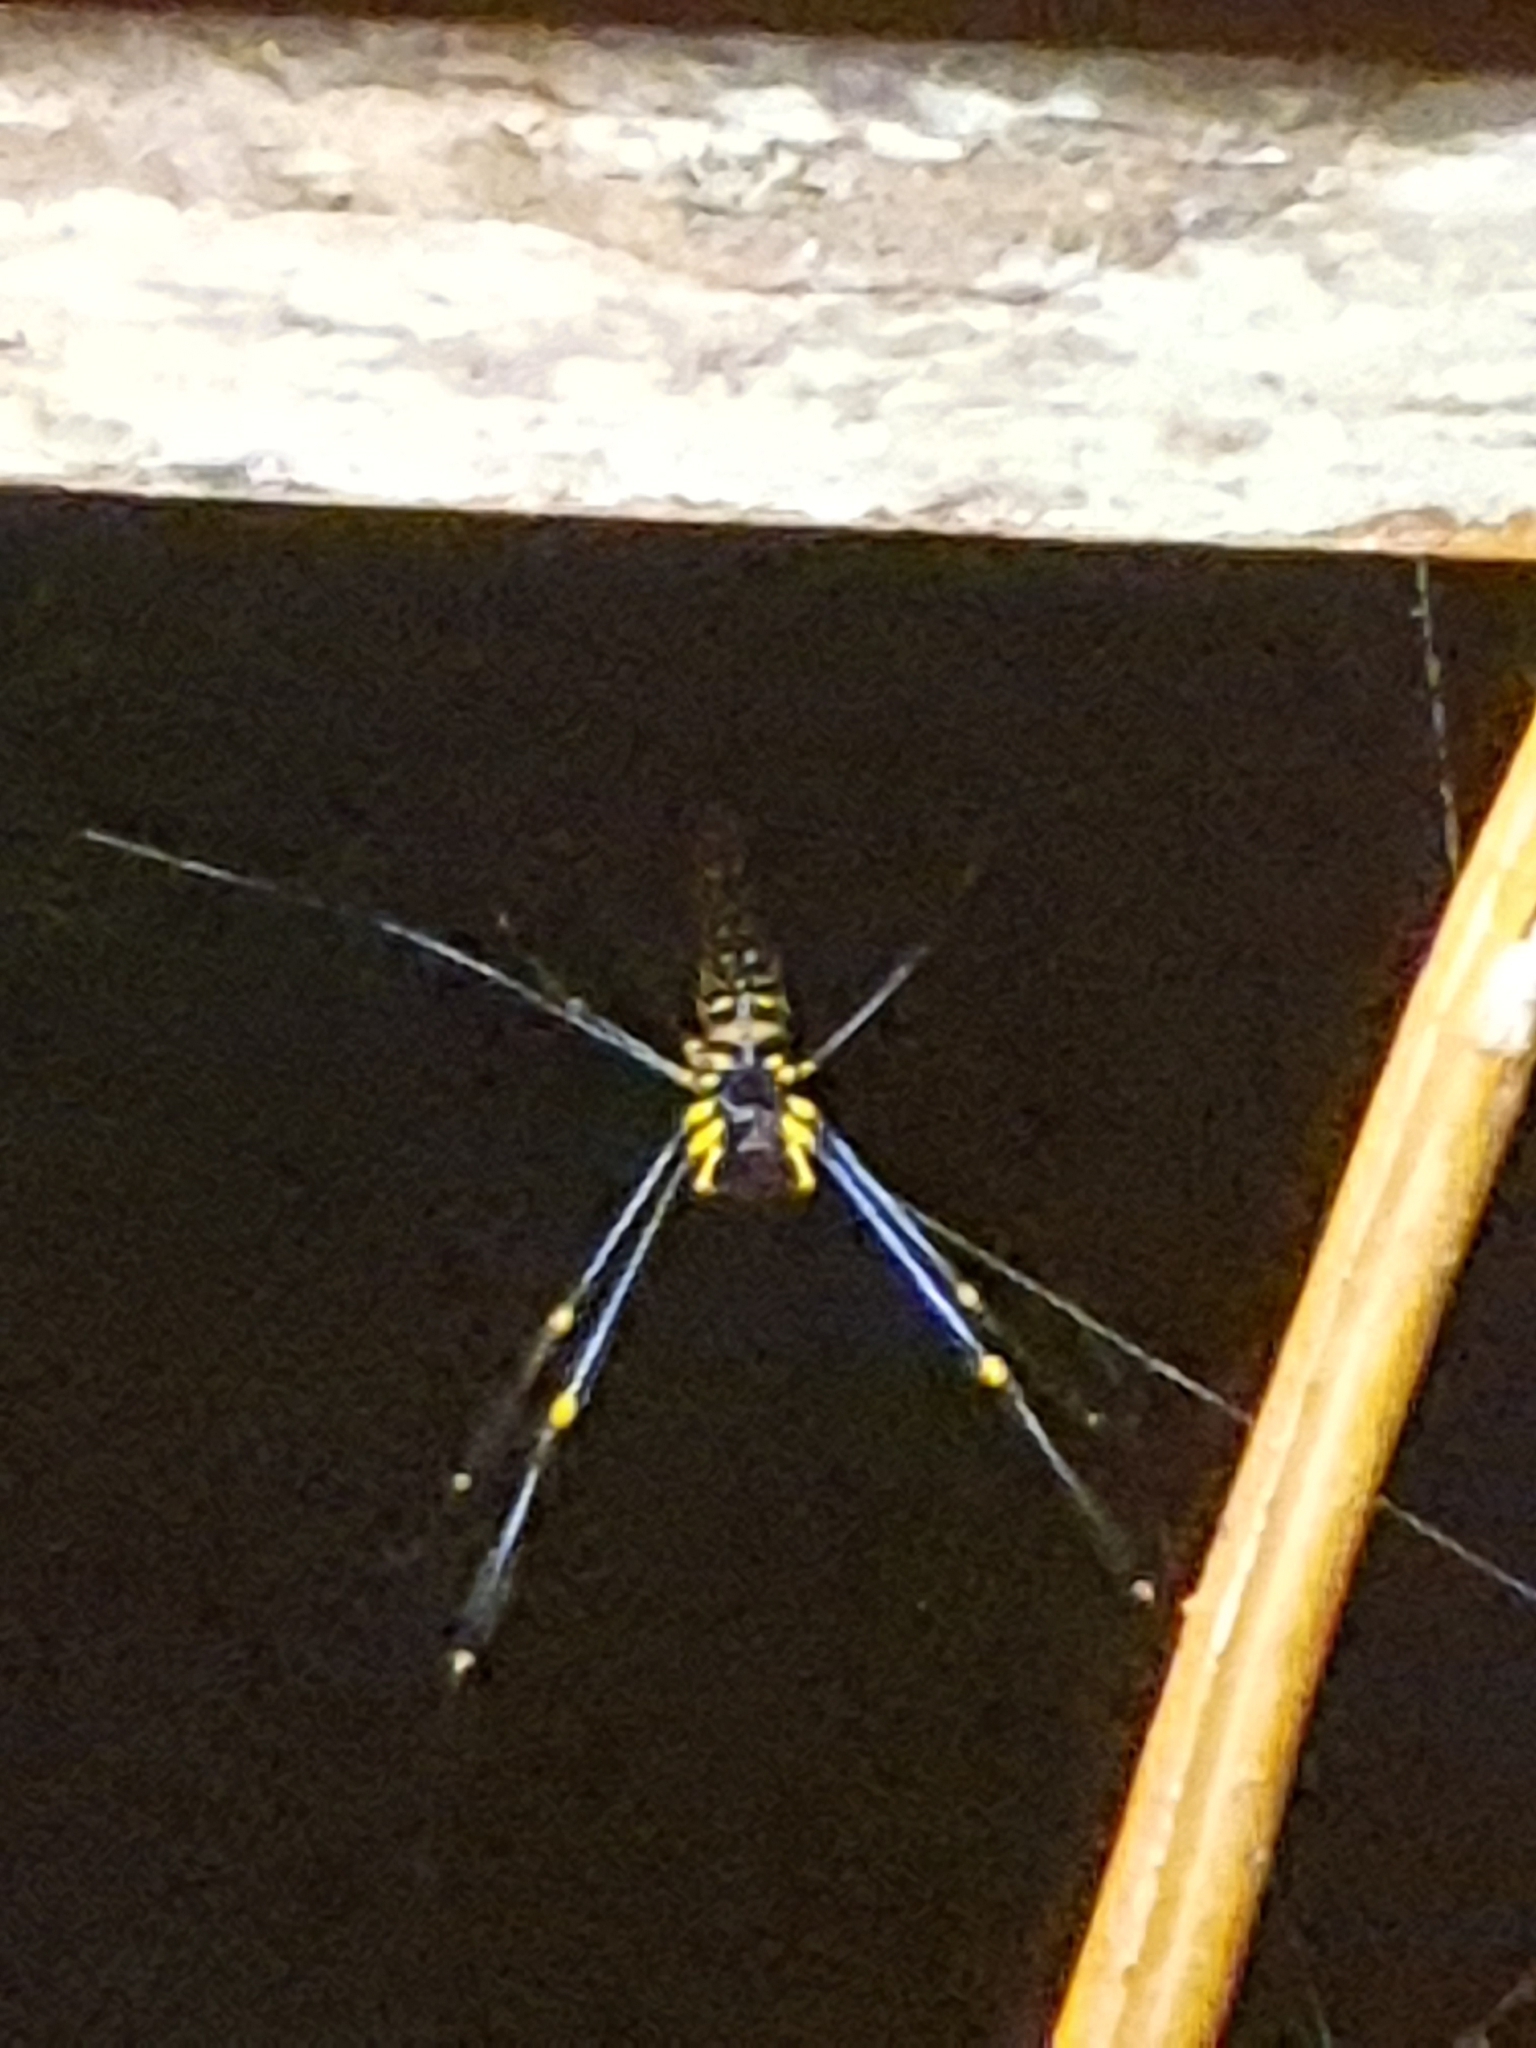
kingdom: Animalia
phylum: Arthropoda
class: Arachnida
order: Araneae
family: Araneidae
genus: Nephila
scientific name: Nephila pilipes
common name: Giant golden orb weaver
